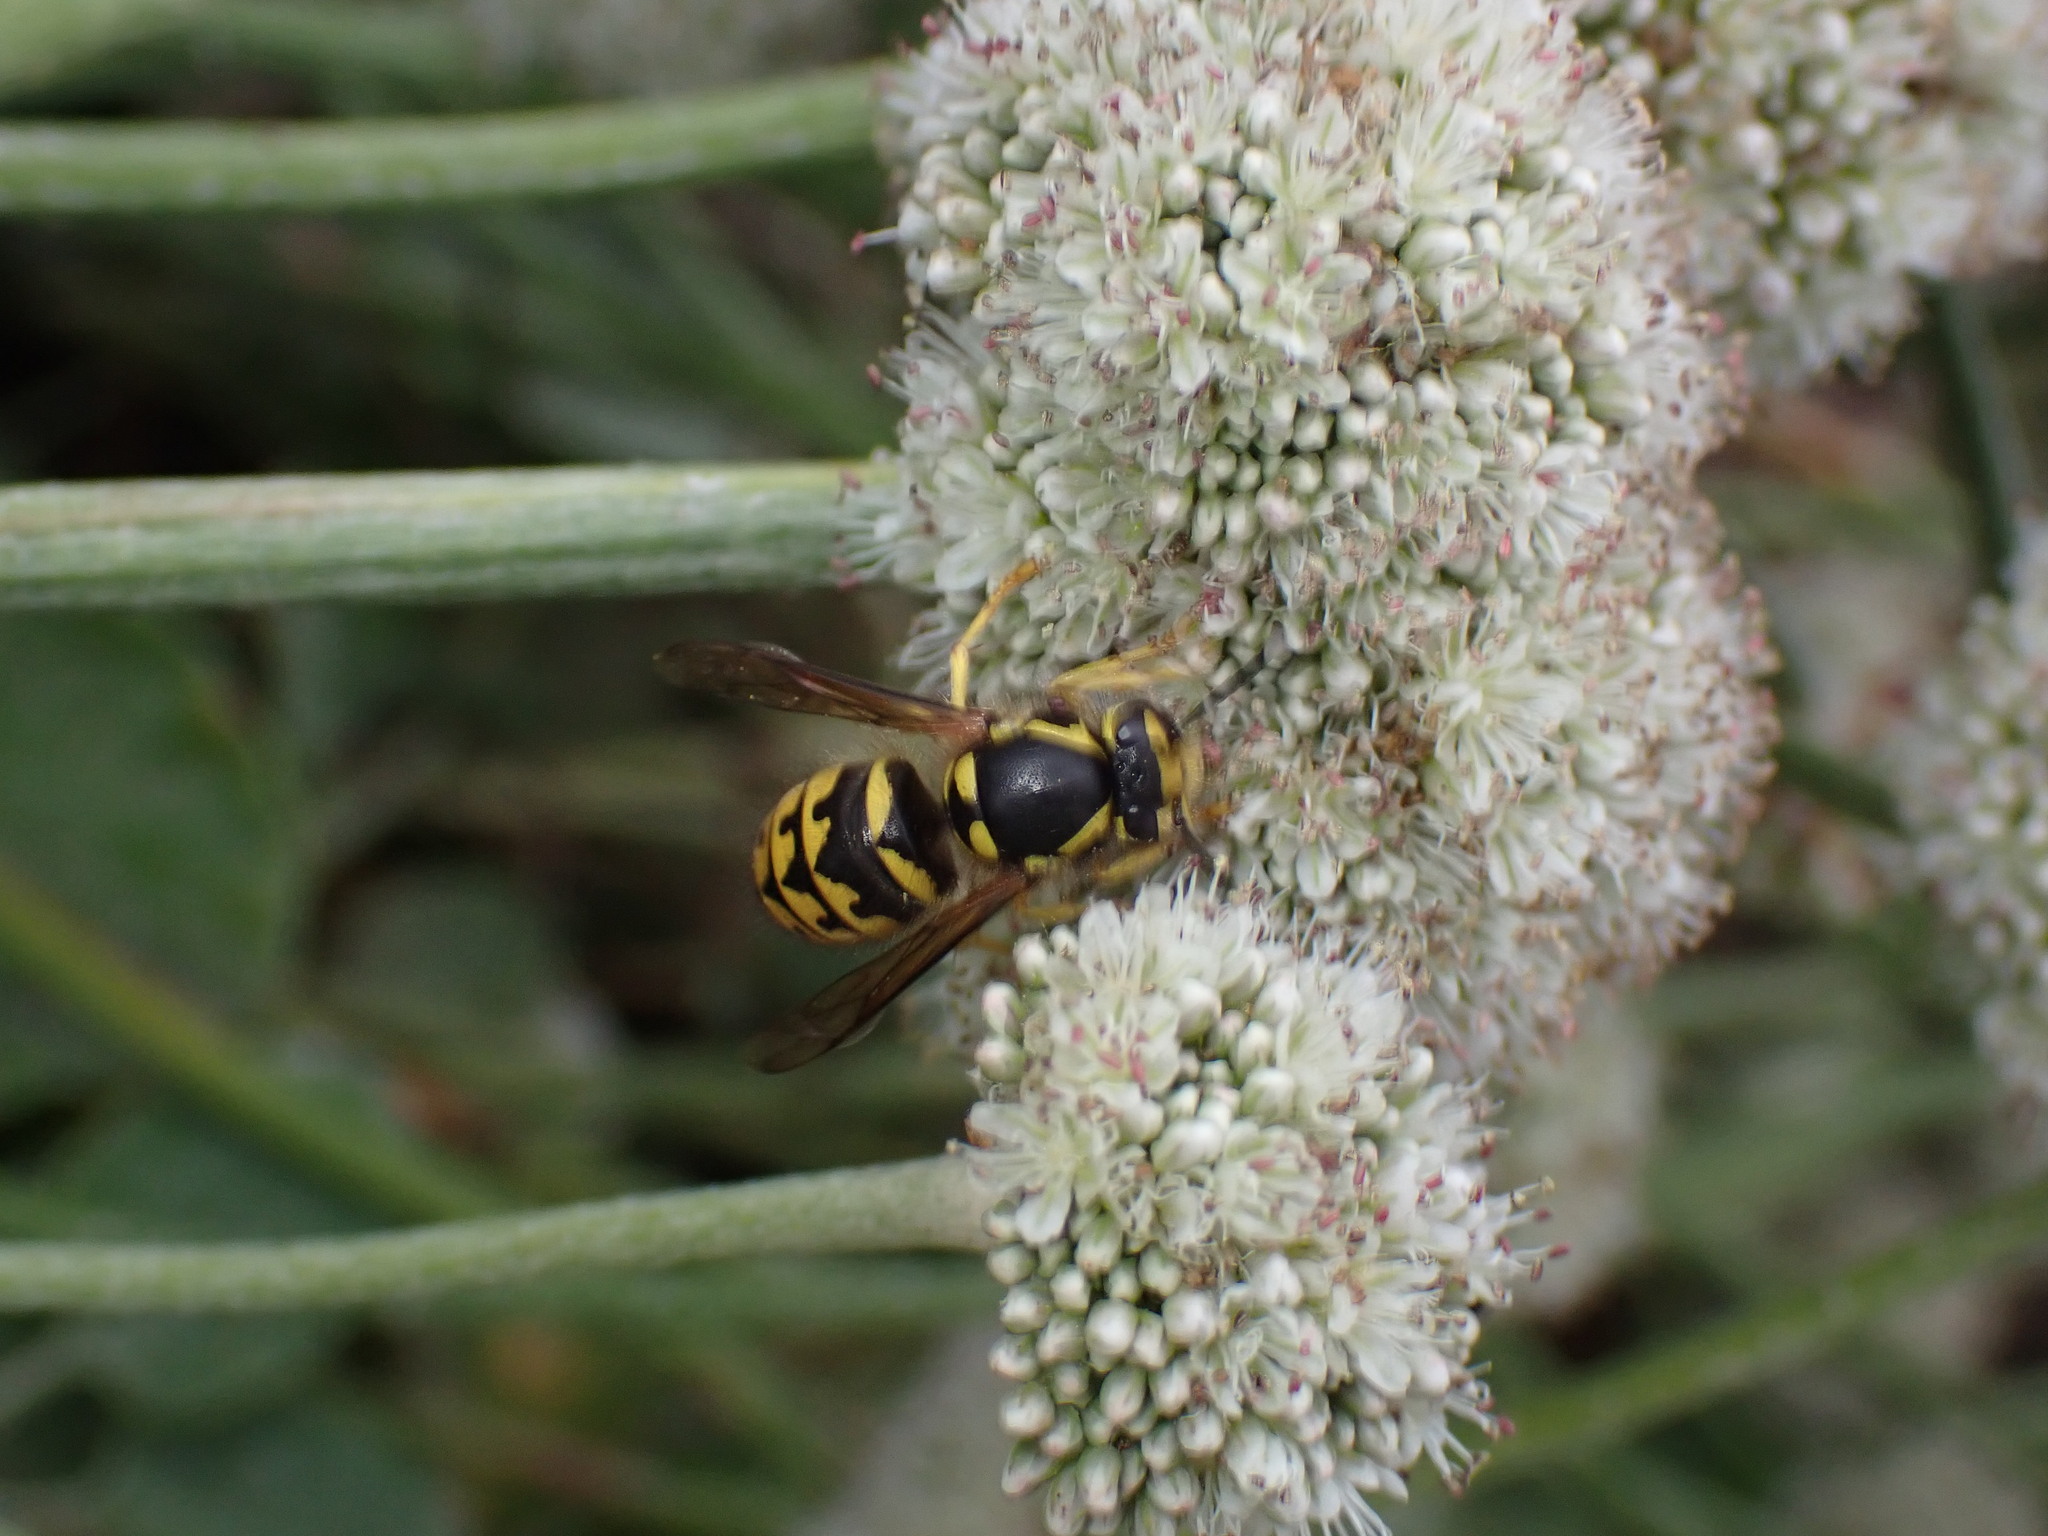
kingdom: Animalia
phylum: Arthropoda
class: Insecta
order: Hymenoptera
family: Vespidae
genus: Dolichovespula
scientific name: Dolichovespula arenaria
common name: Aerial yellowjacket
